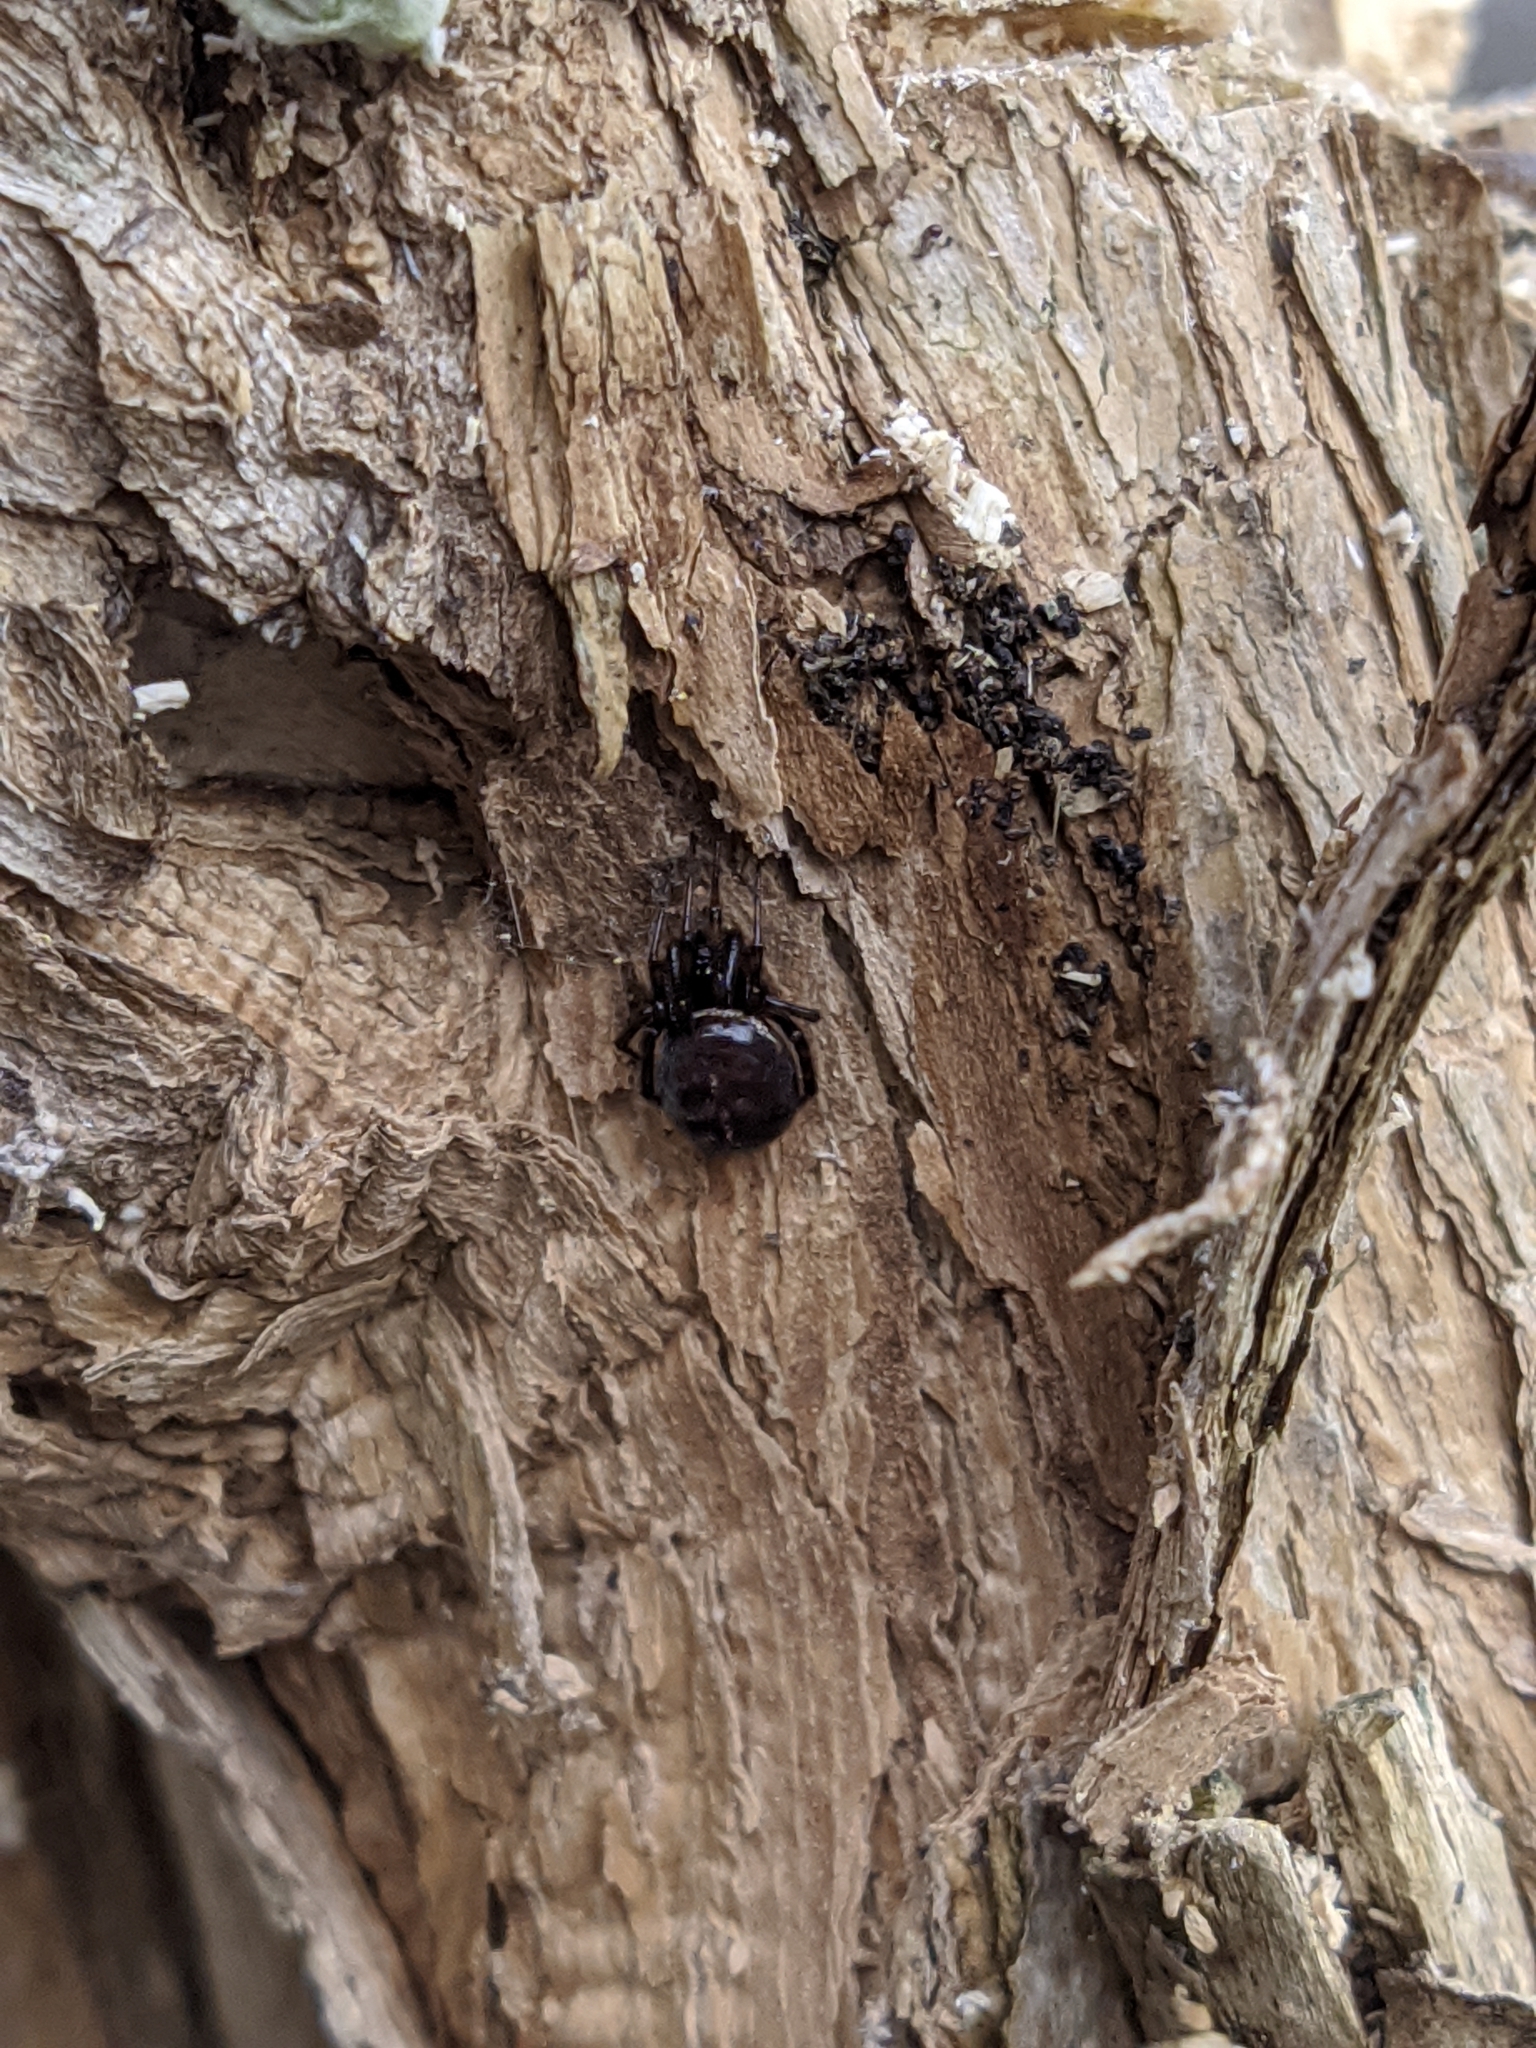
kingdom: Animalia
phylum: Arthropoda
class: Arachnida
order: Araneae
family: Theridiidae
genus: Steatoda
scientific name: Steatoda bipunctata
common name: False widow
